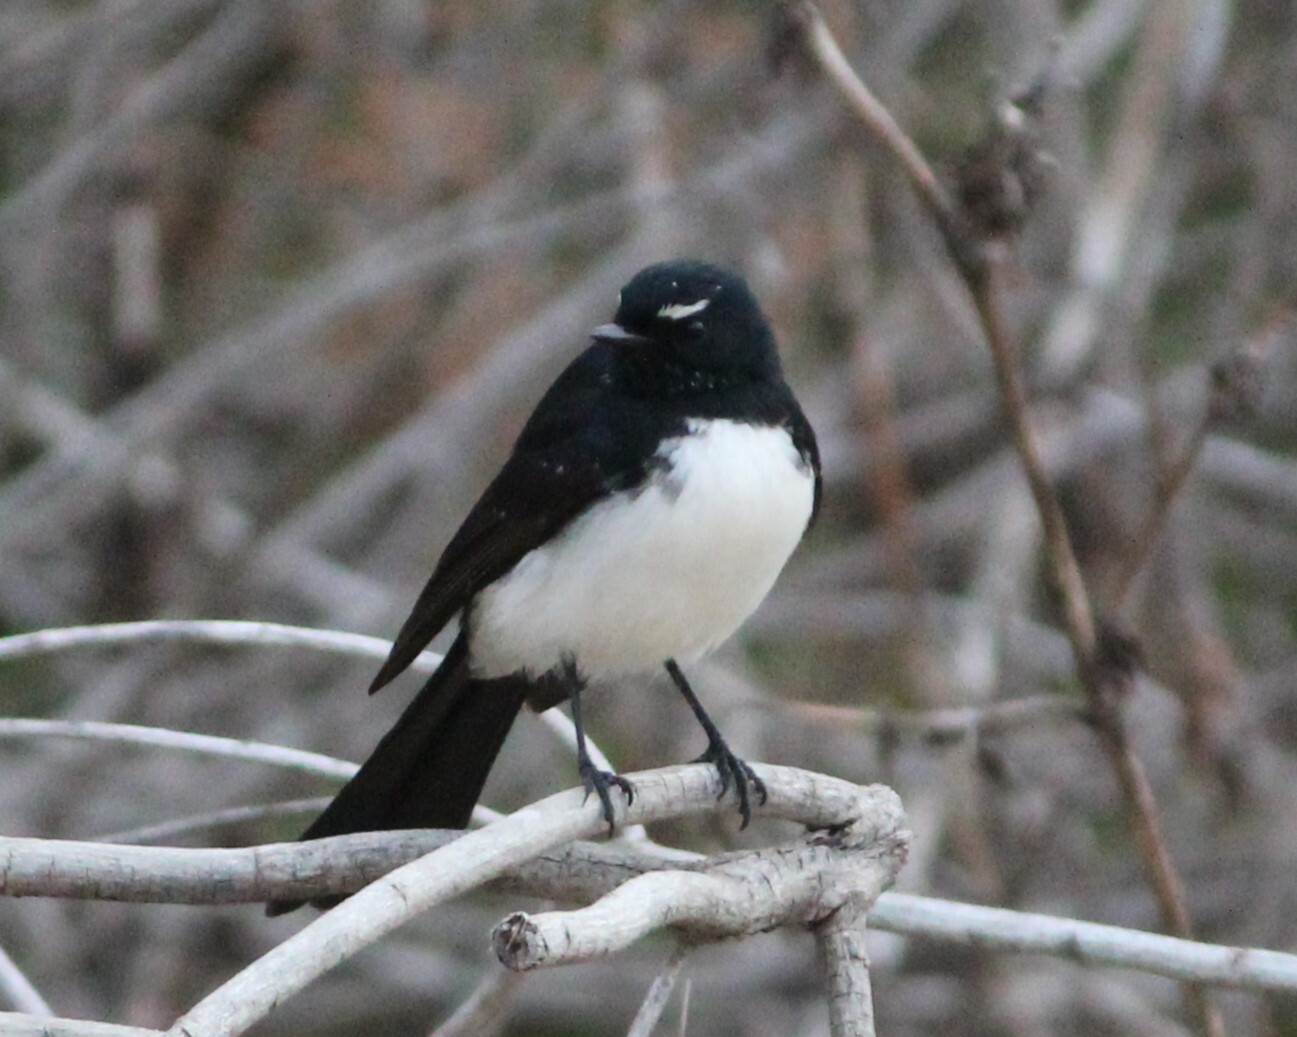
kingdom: Animalia
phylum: Chordata
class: Aves
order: Passeriformes
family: Rhipiduridae
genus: Rhipidura
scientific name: Rhipidura leucophrys
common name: Willie wagtail
